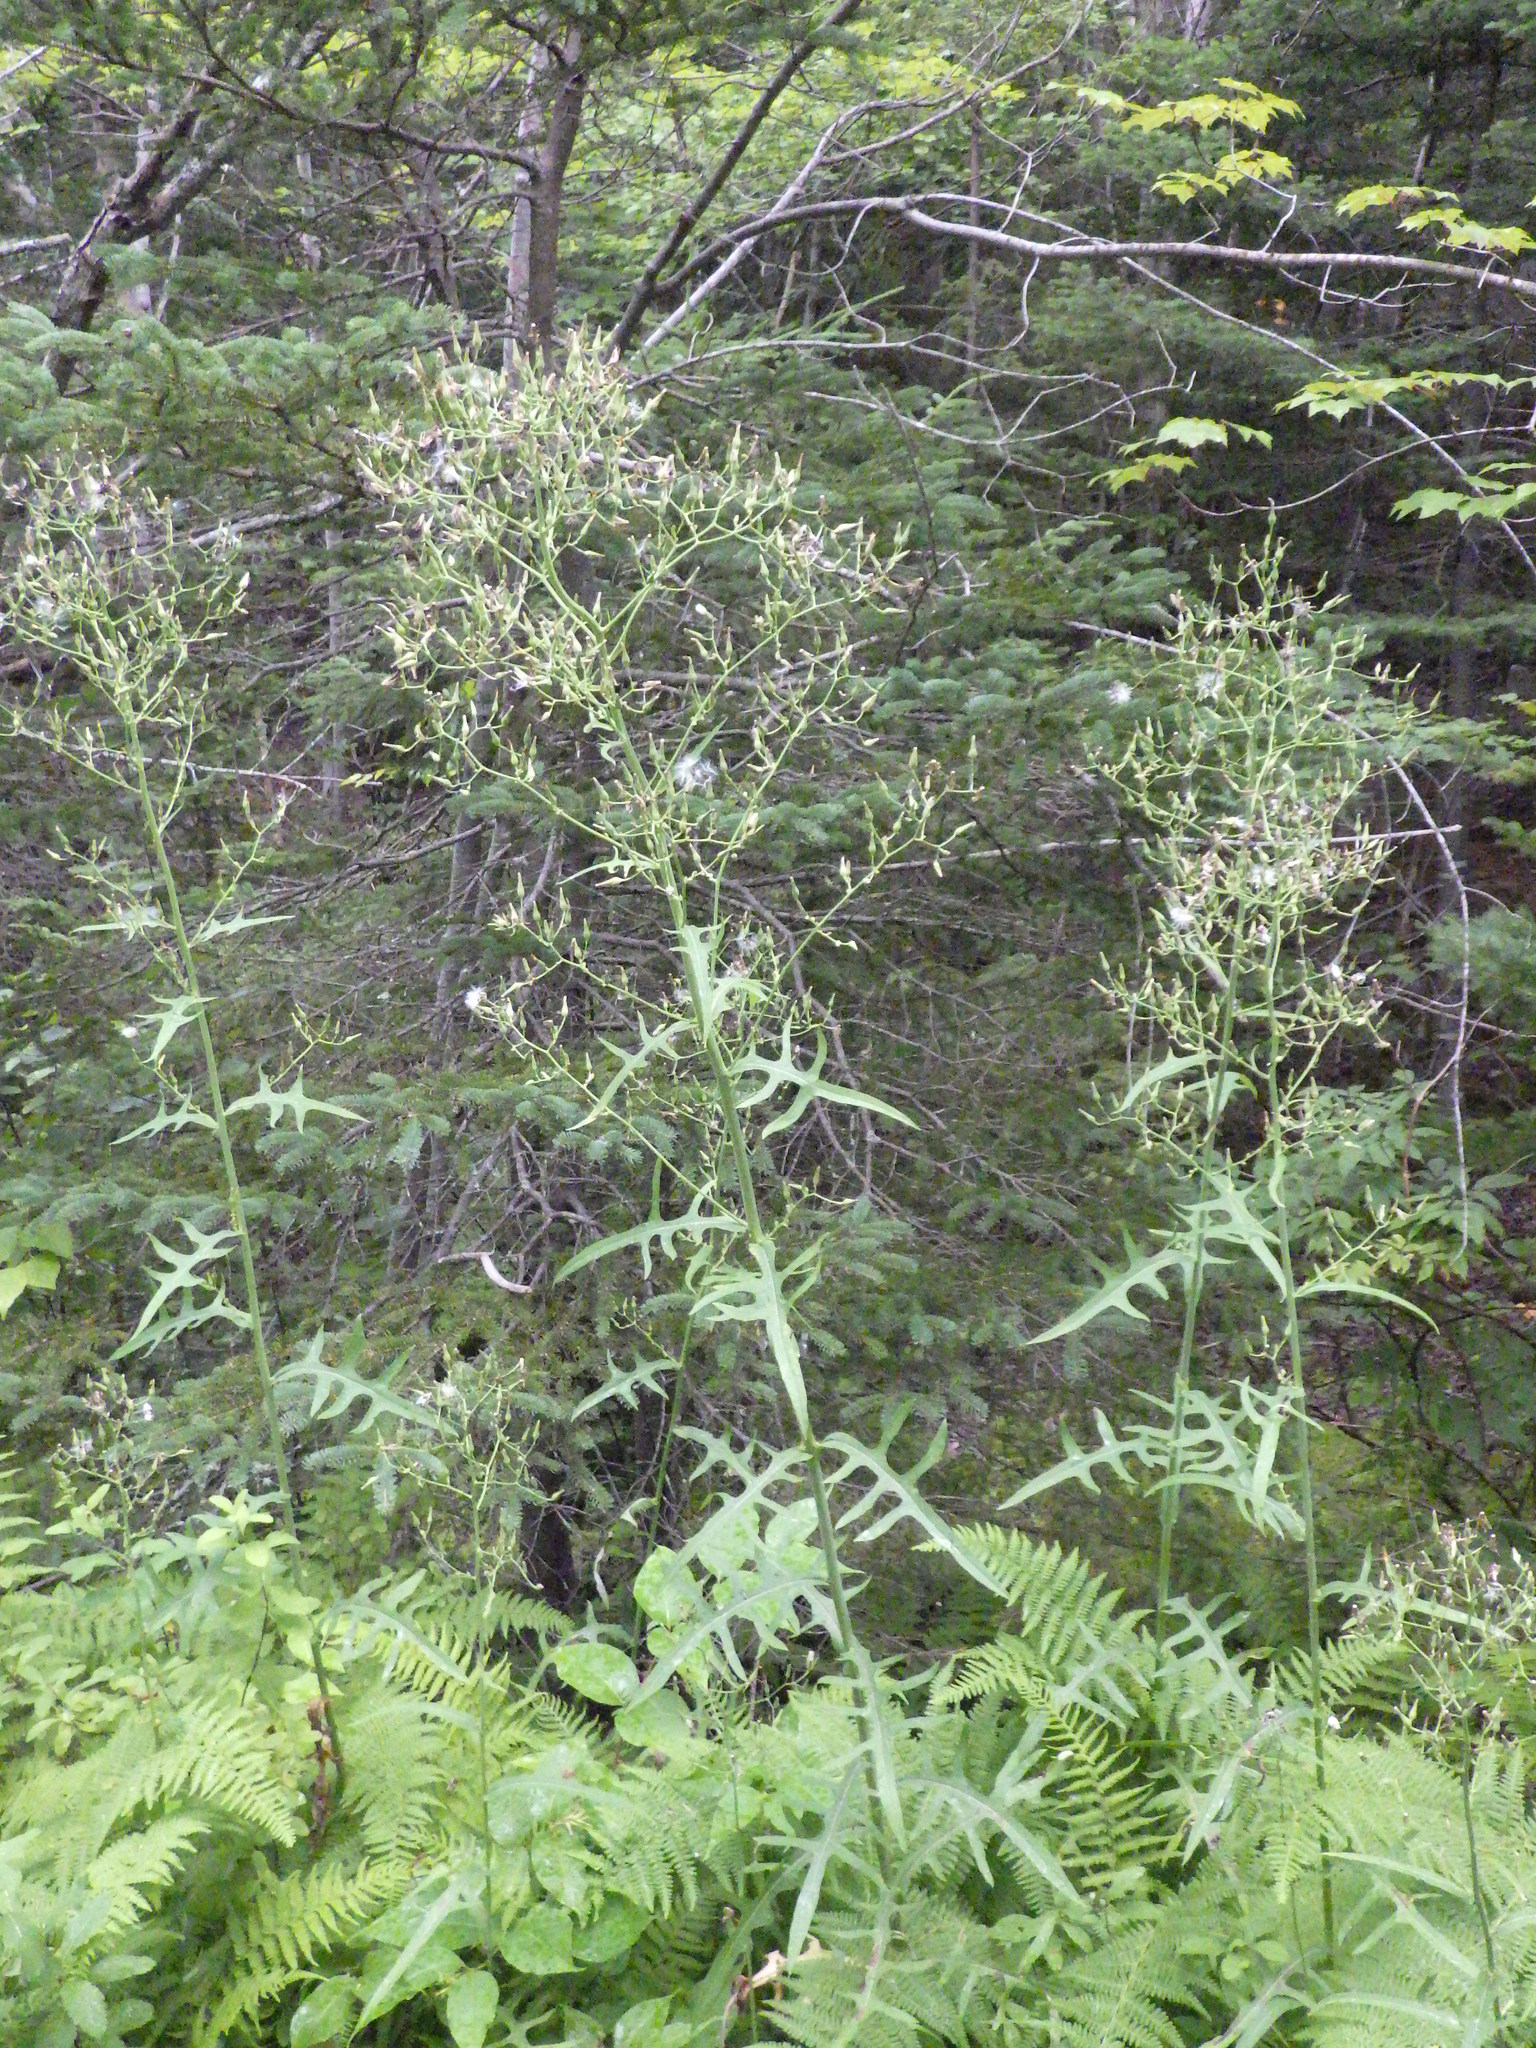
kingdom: Plantae
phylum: Tracheophyta
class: Magnoliopsida
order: Asterales
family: Asteraceae
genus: Lactuca
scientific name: Lactuca biennis
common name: Blue wood lettuce
